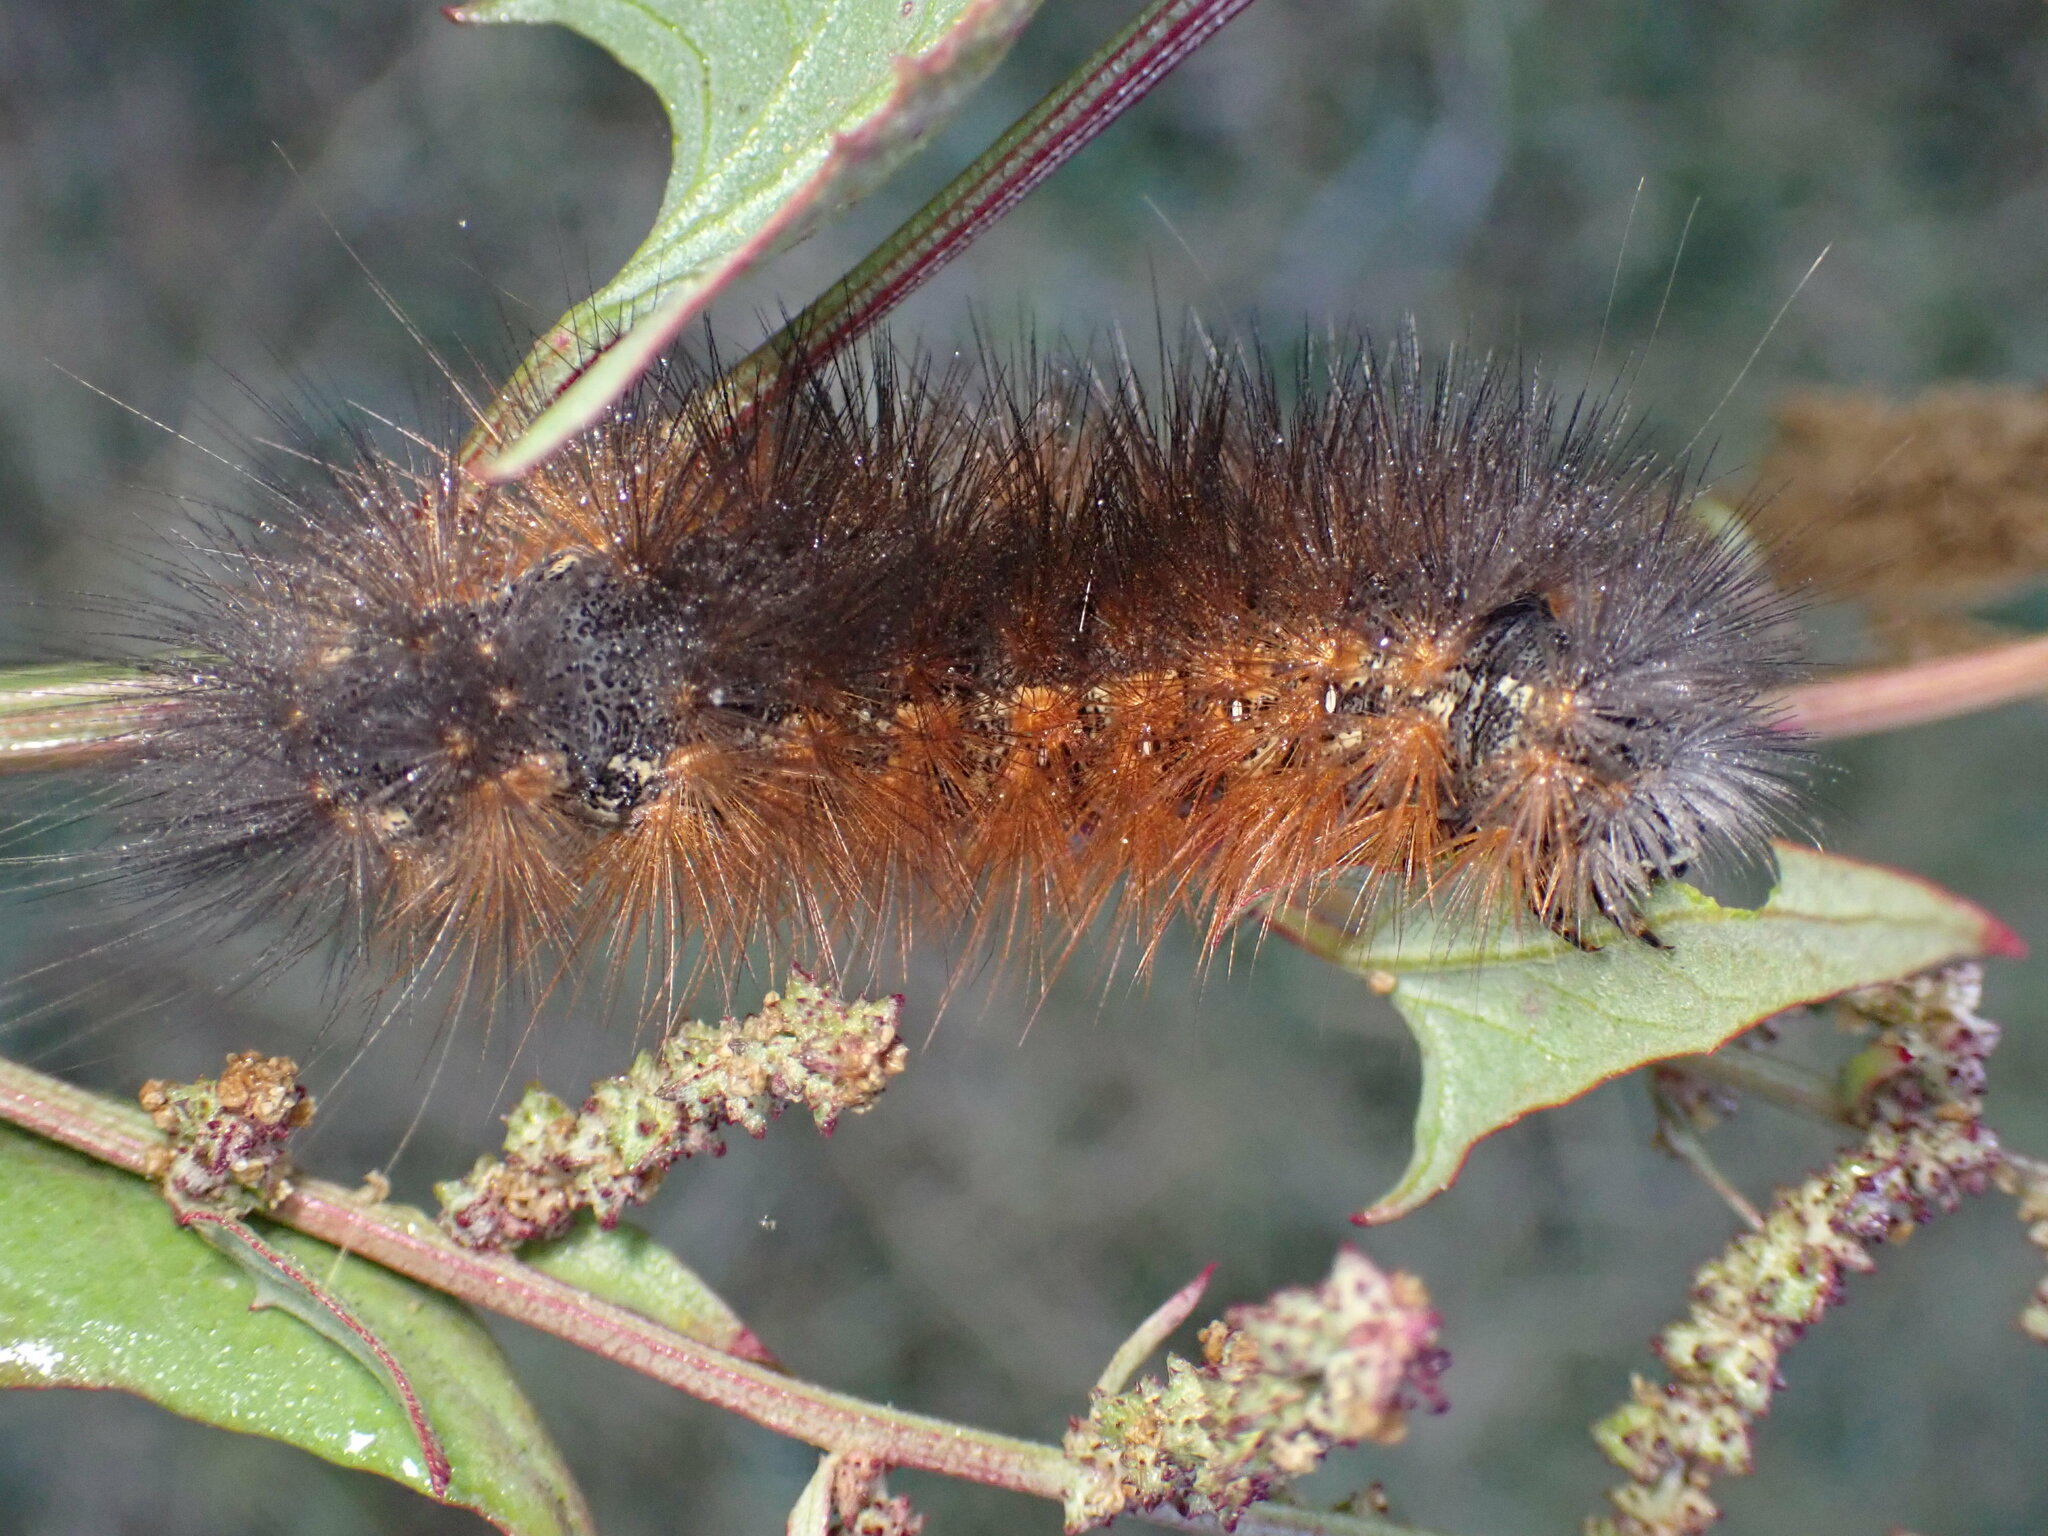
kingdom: Animalia
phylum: Arthropoda
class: Insecta
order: Lepidoptera
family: Erebidae
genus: Estigmene
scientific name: Estigmene acrea
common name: Salt marsh moth
